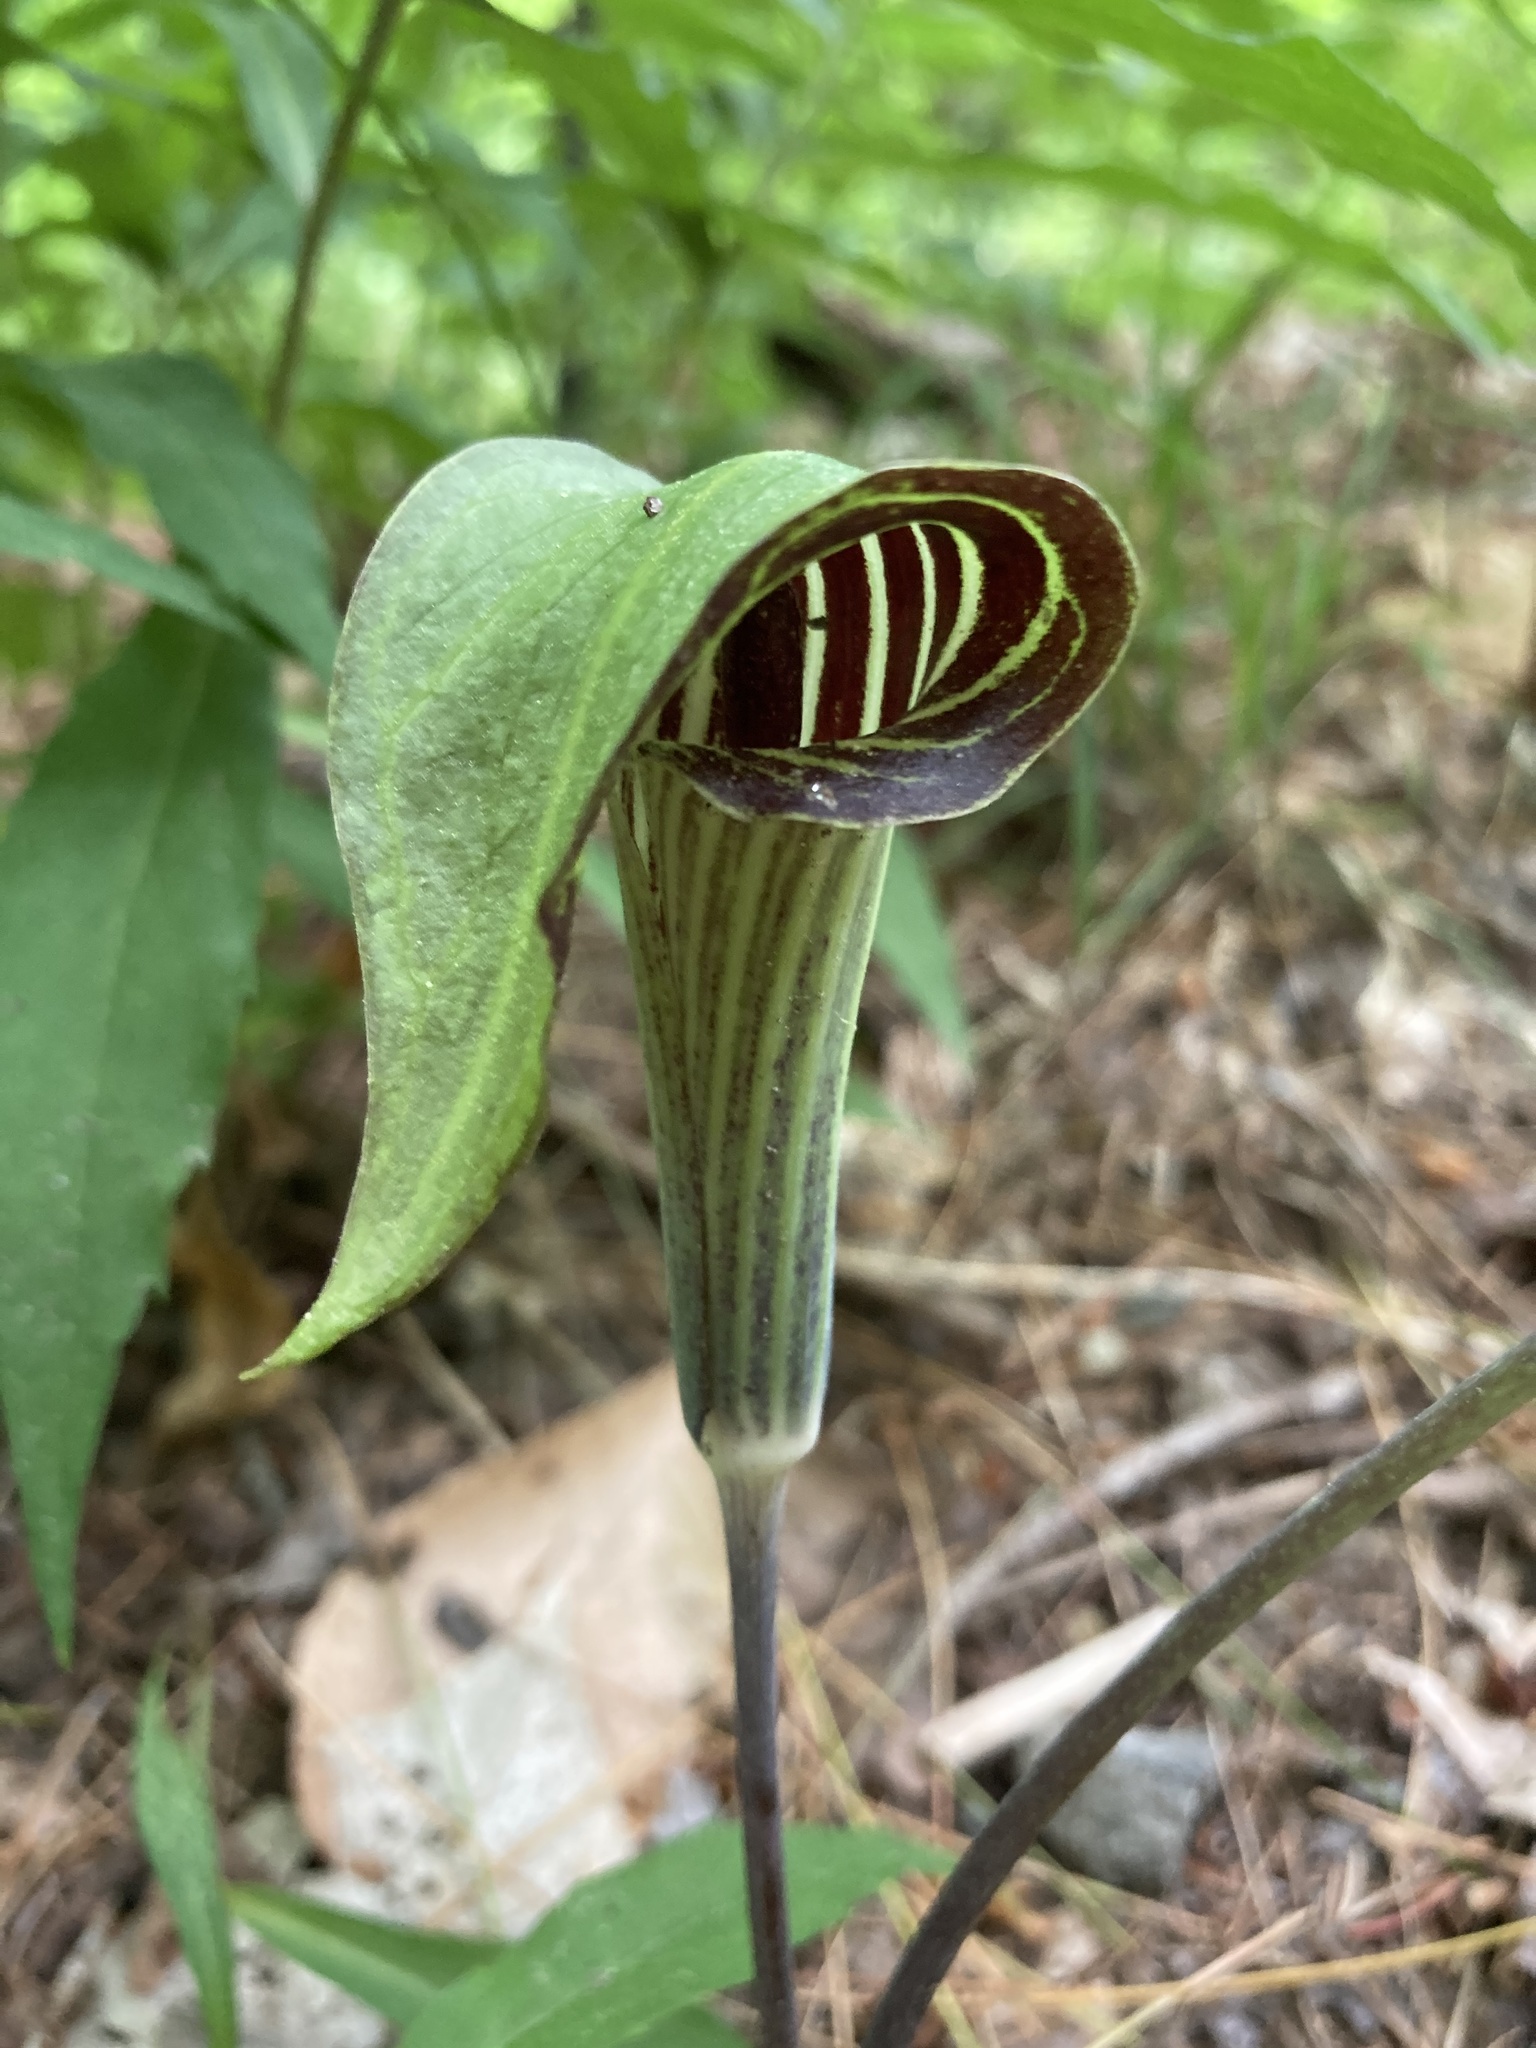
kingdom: Plantae
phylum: Tracheophyta
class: Liliopsida
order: Alismatales
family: Araceae
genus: Arisaema
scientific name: Arisaema triphyllum
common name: Jack-in-the-pulpit
